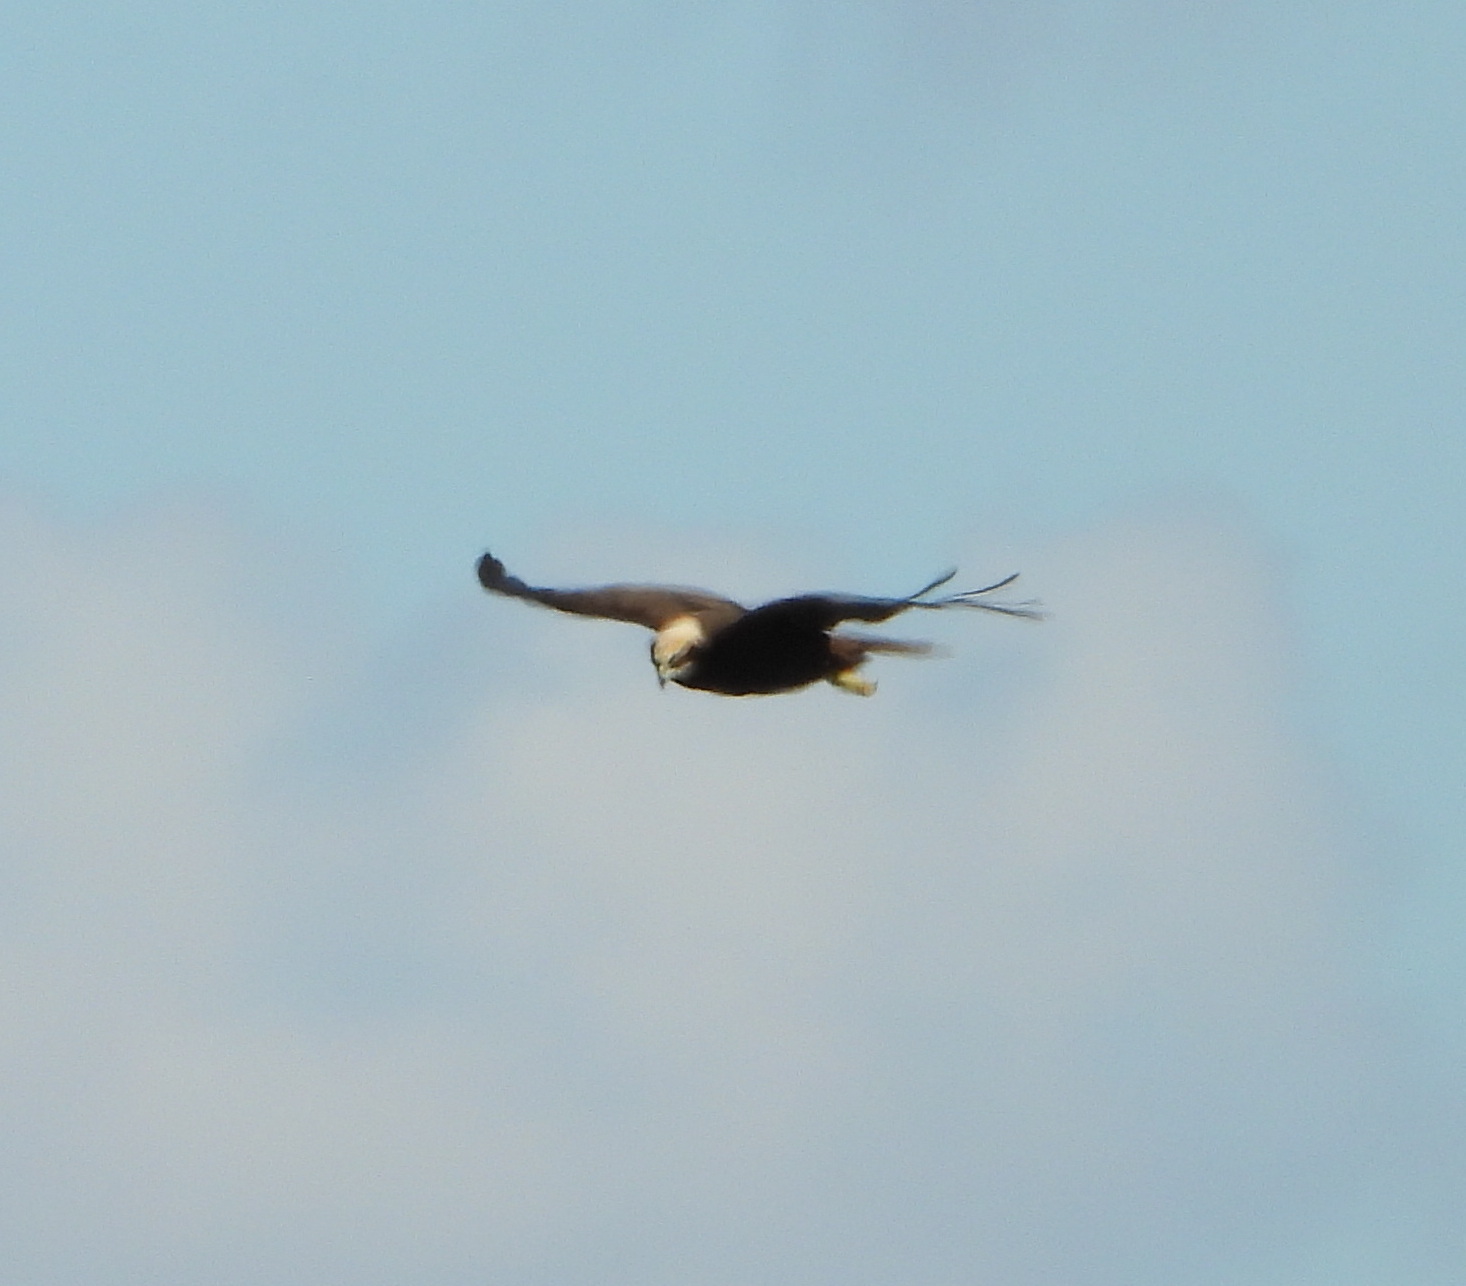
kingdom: Animalia
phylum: Chordata
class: Aves
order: Accipitriformes
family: Accipitridae
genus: Circus
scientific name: Circus aeruginosus
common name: Western marsh harrier
